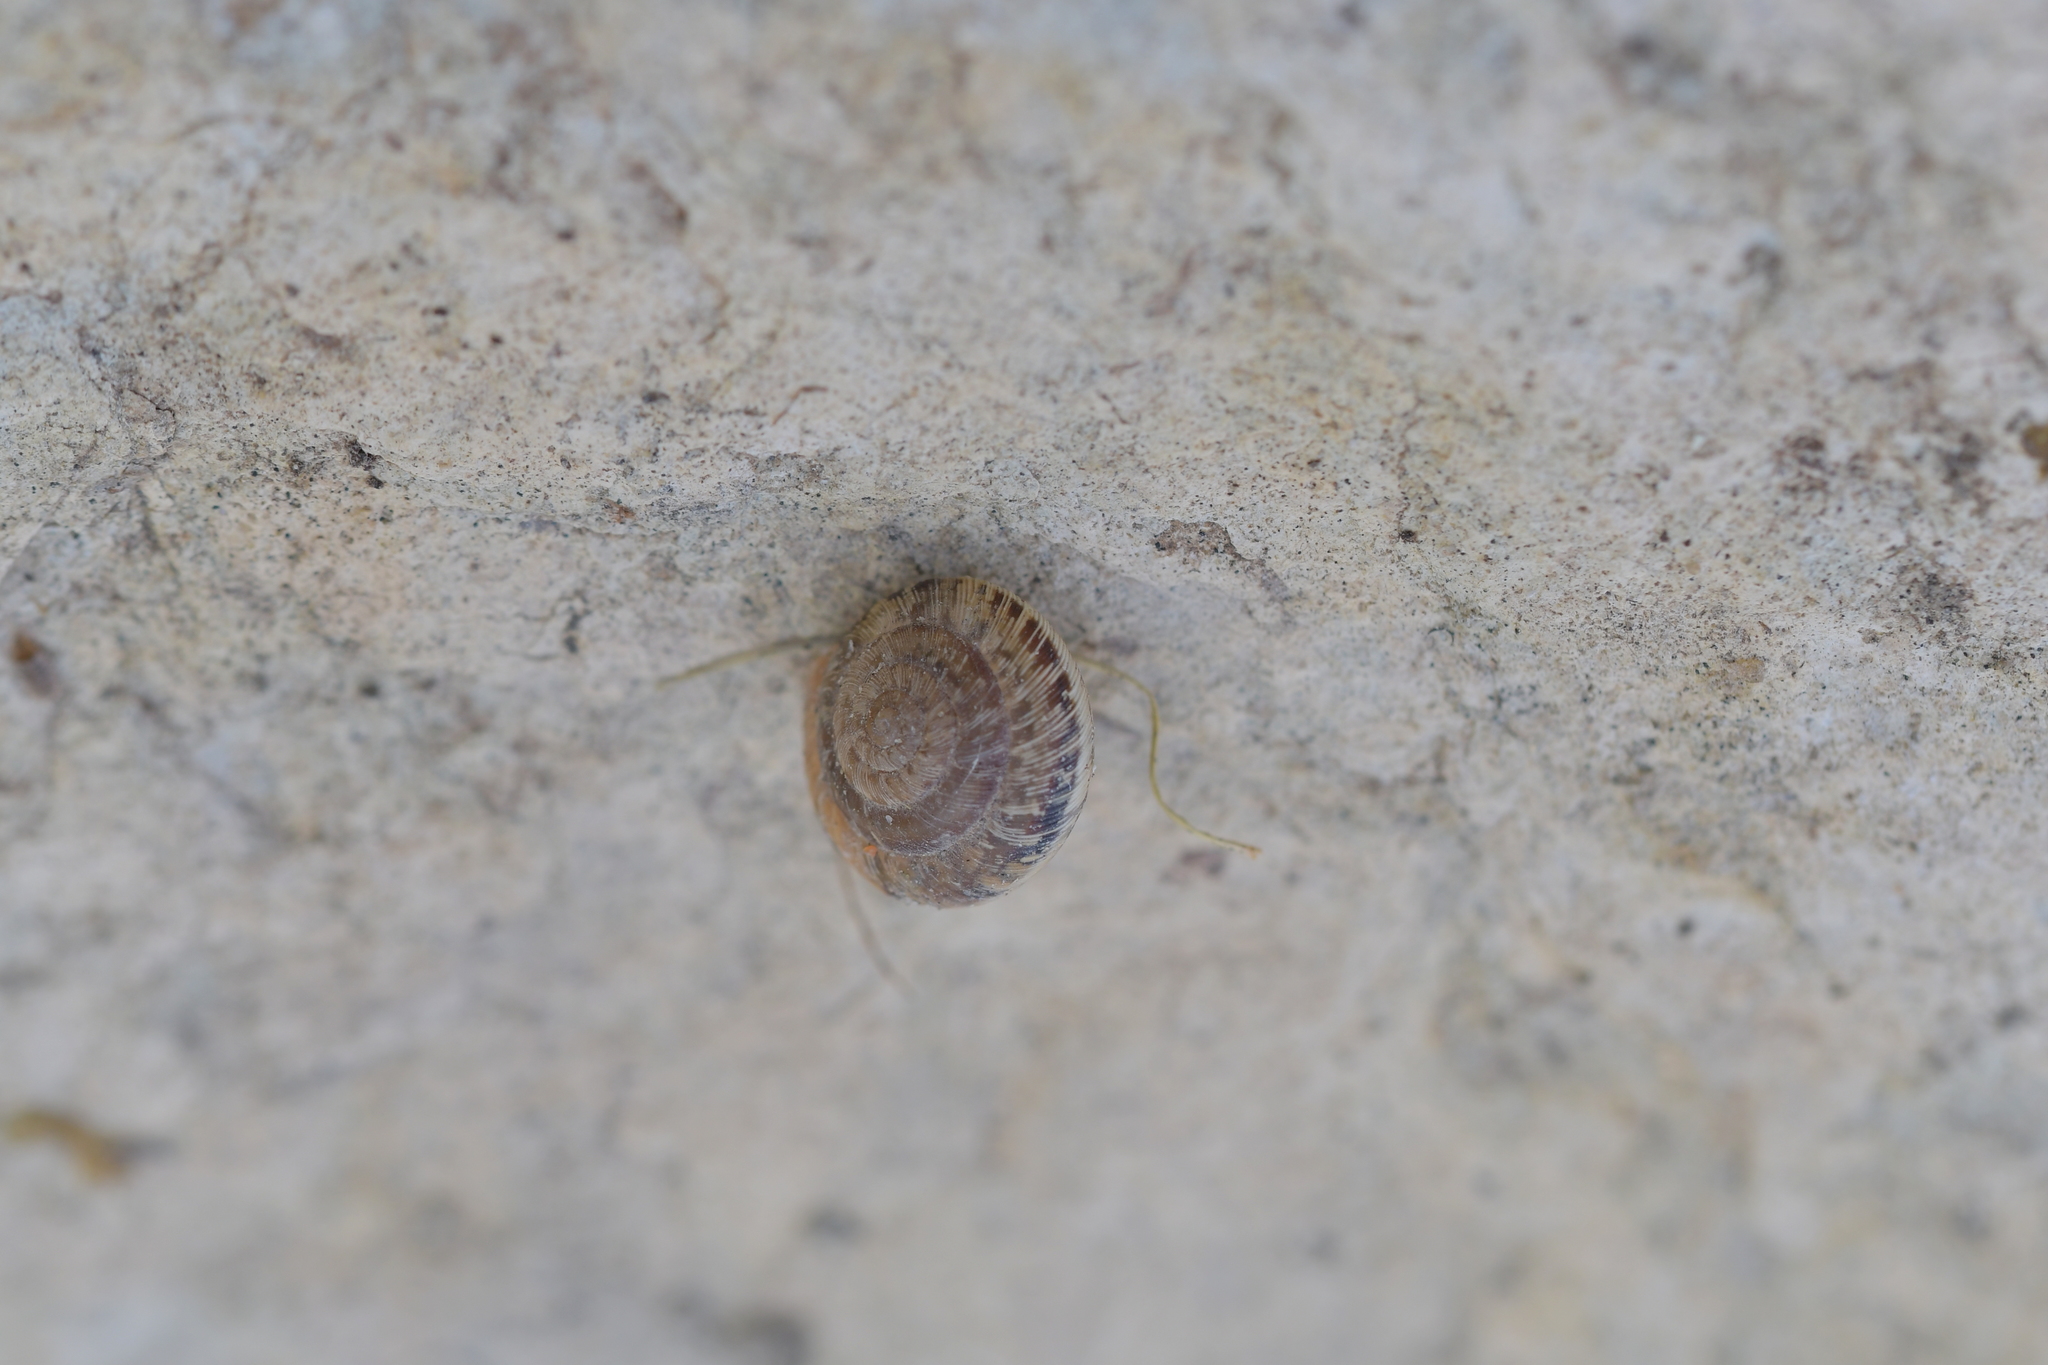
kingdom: Animalia
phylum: Mollusca
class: Gastropoda
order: Stylommatophora
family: Geomitridae
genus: Xeroplexa
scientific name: Xeroplexa intersecta
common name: Wrinkled snail
